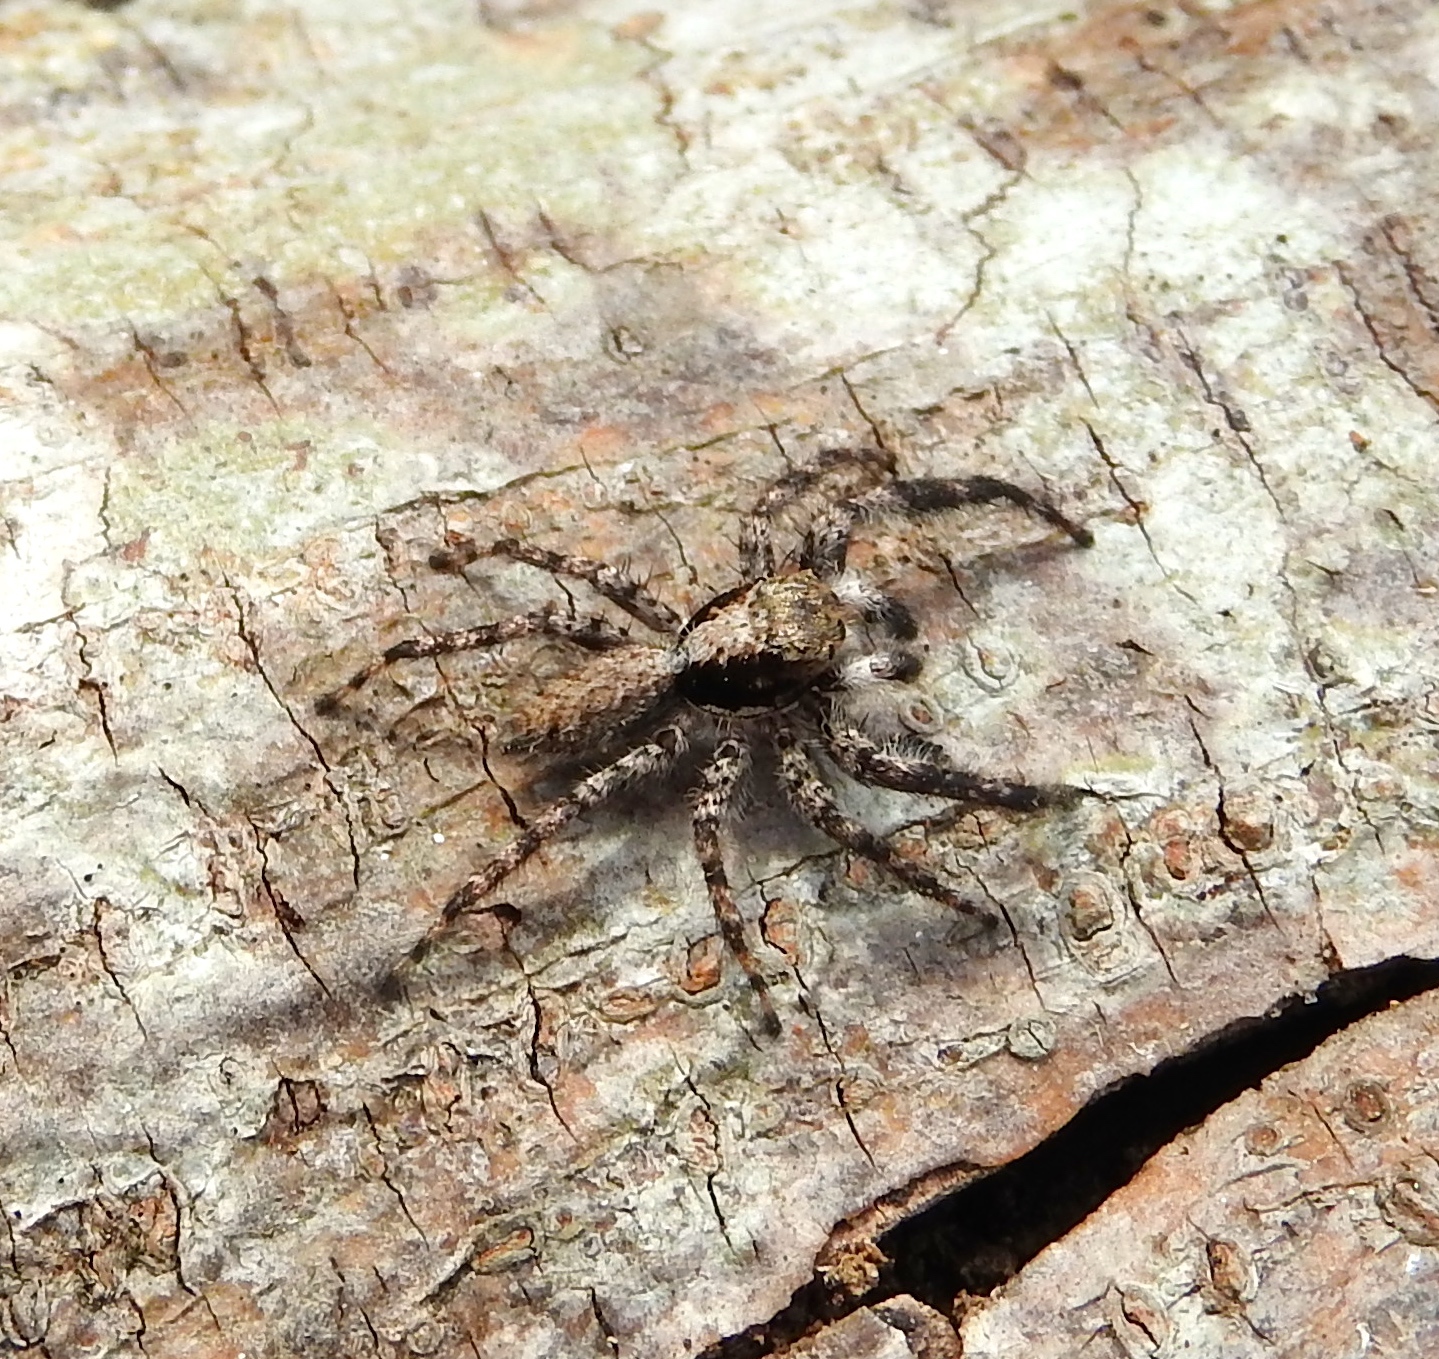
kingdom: Animalia
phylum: Arthropoda
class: Arachnida
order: Araneae
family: Salticidae
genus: Balmaceda
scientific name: Balmaceda
